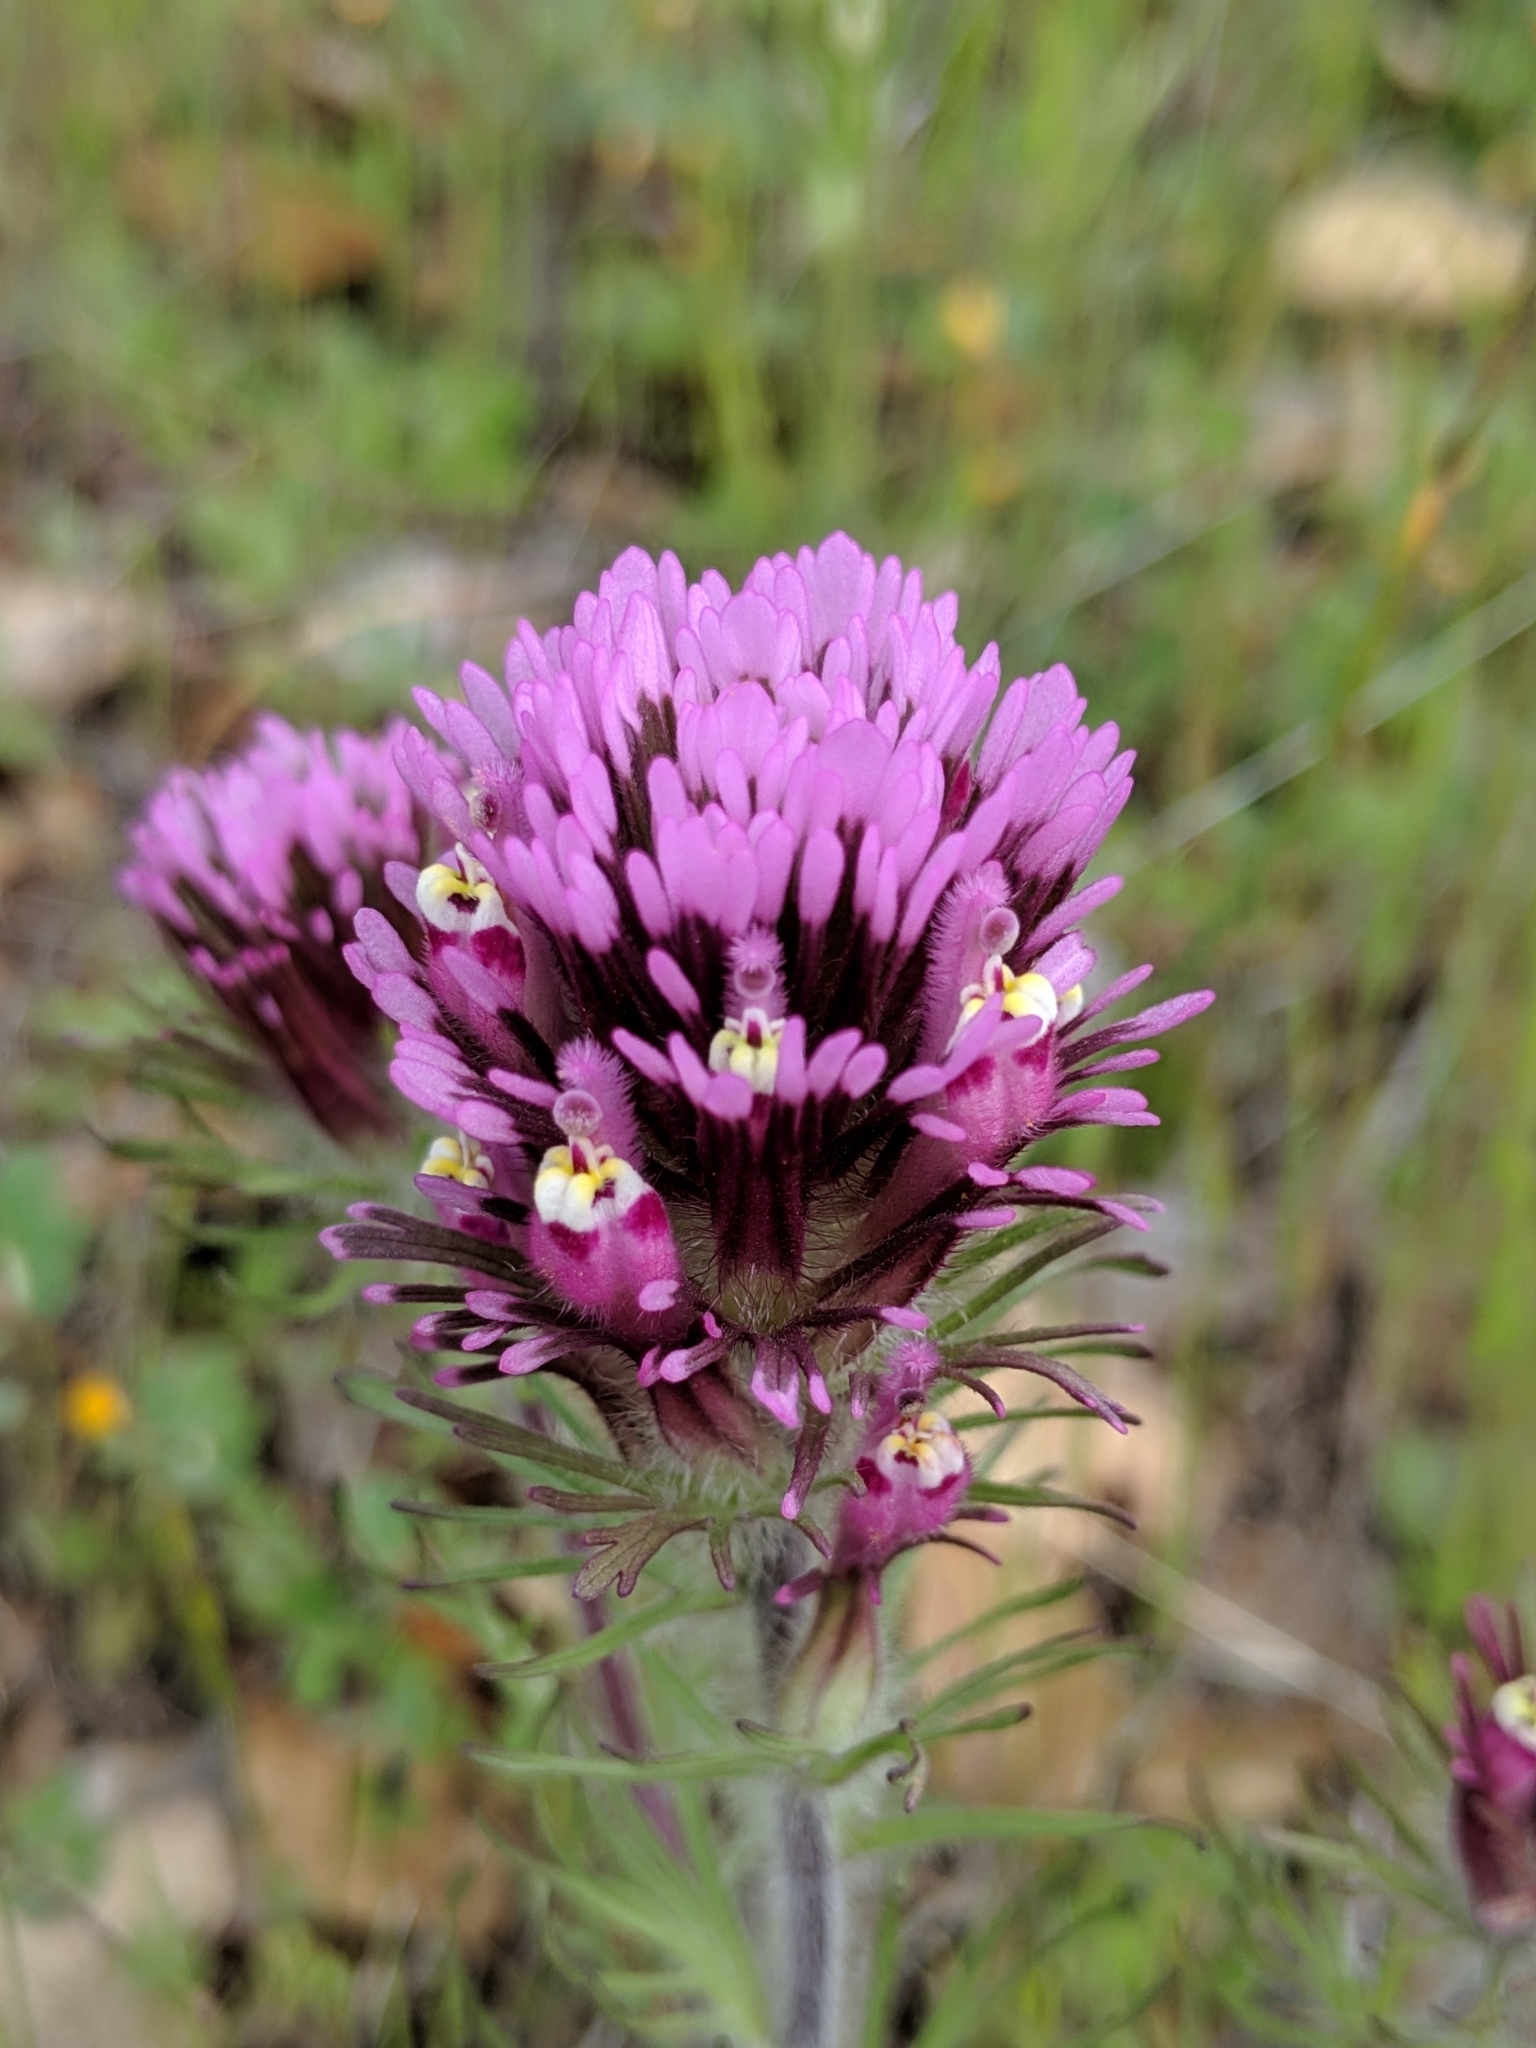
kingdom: Plantae
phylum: Tracheophyta
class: Magnoliopsida
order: Lamiales
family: Orobanchaceae
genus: Castilleja
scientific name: Castilleja exserta
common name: Purple owl-clover
